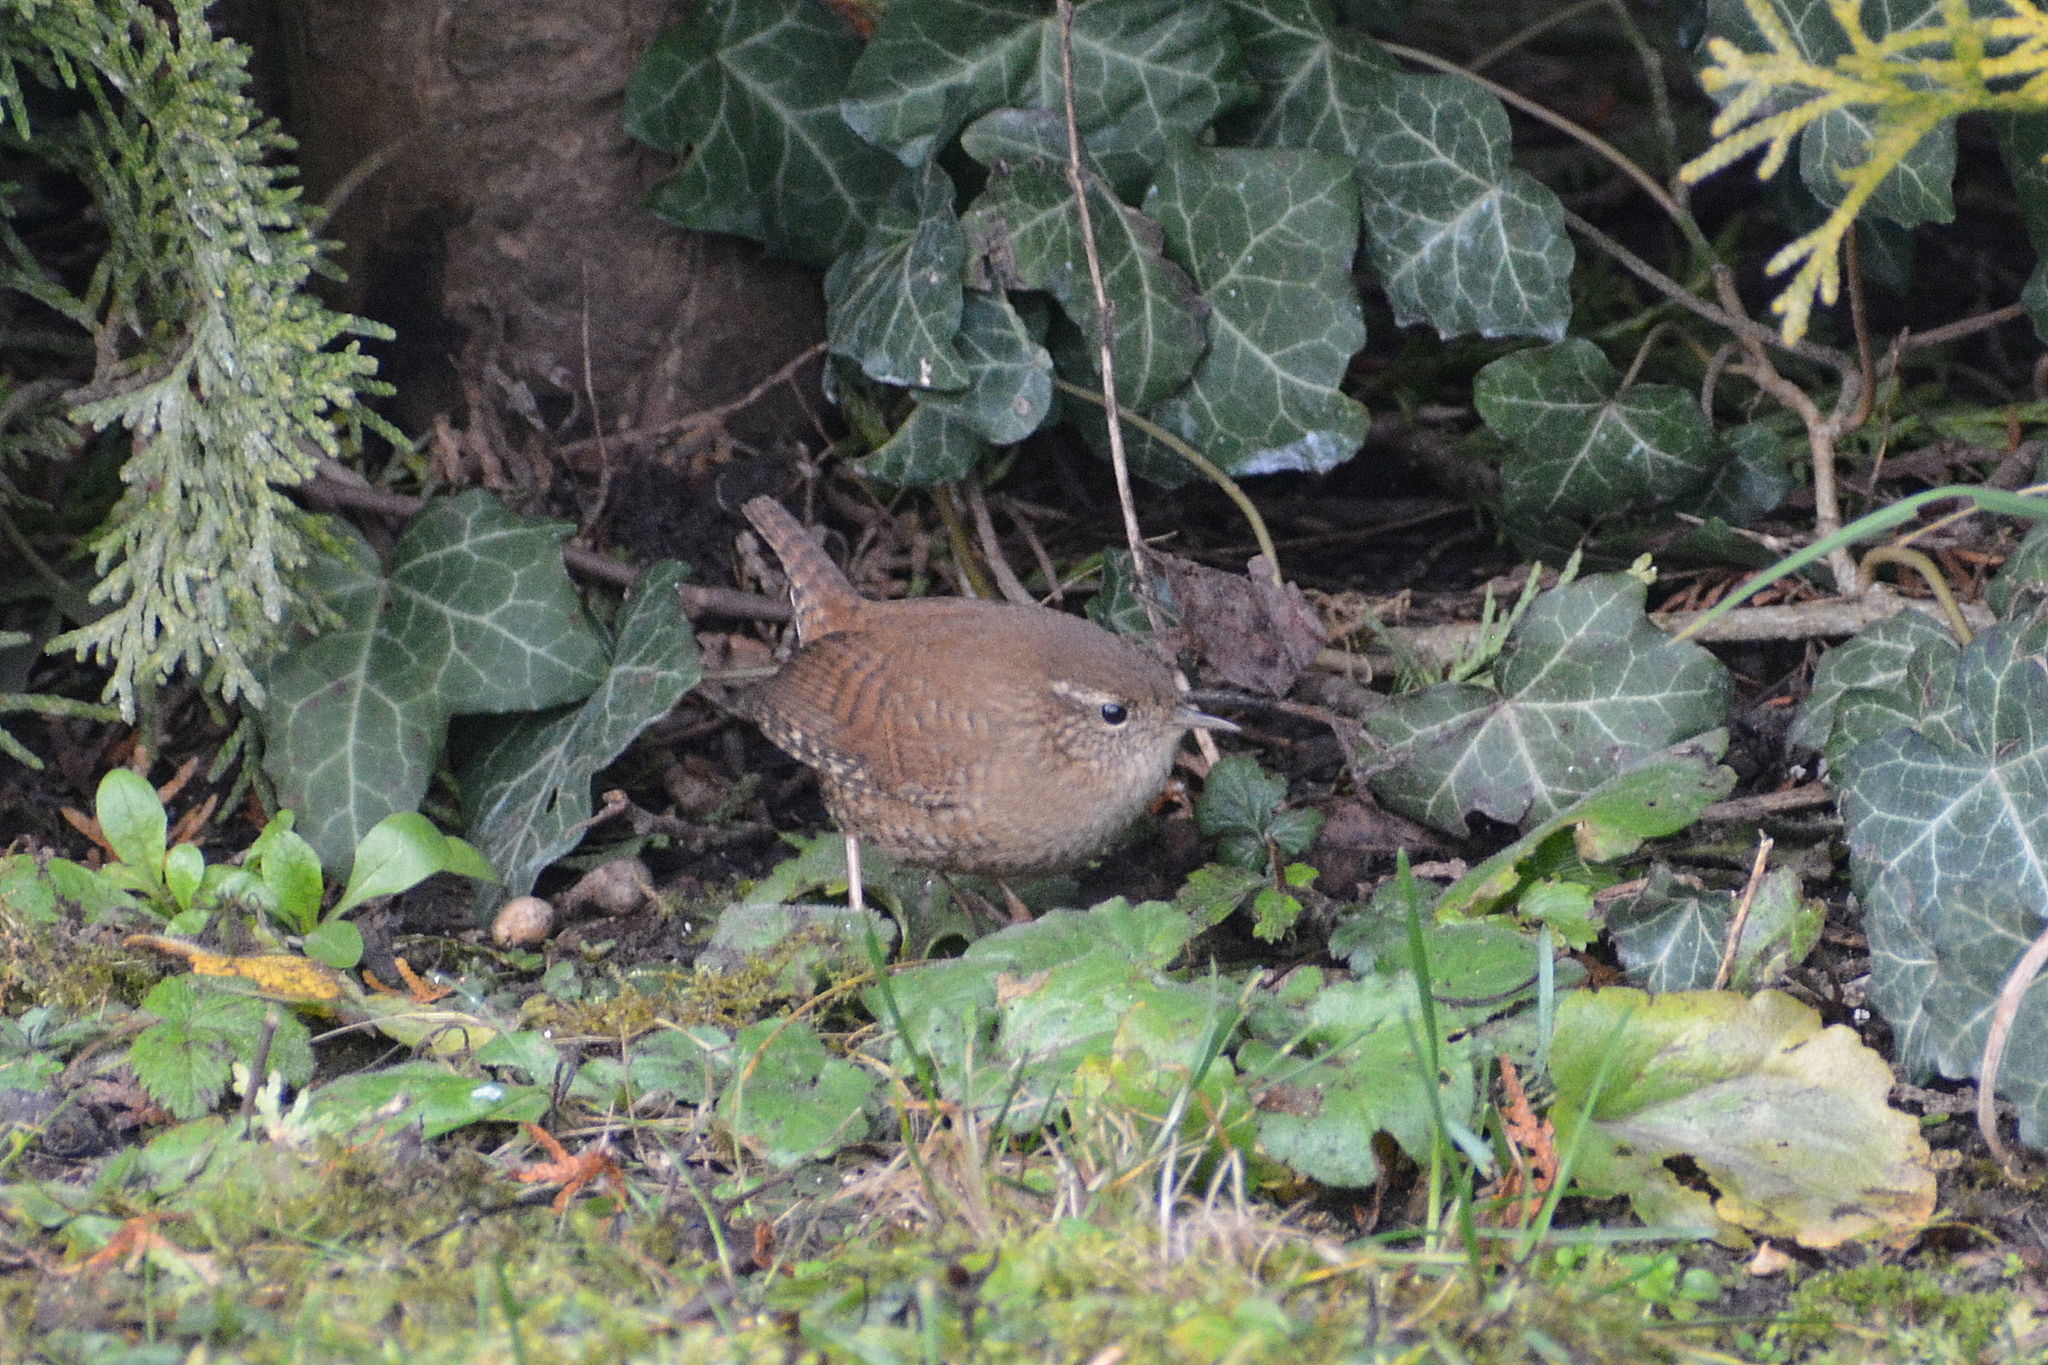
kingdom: Animalia
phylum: Chordata
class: Aves
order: Passeriformes
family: Troglodytidae
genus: Troglodytes
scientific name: Troglodytes troglodytes
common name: Eurasian wren
